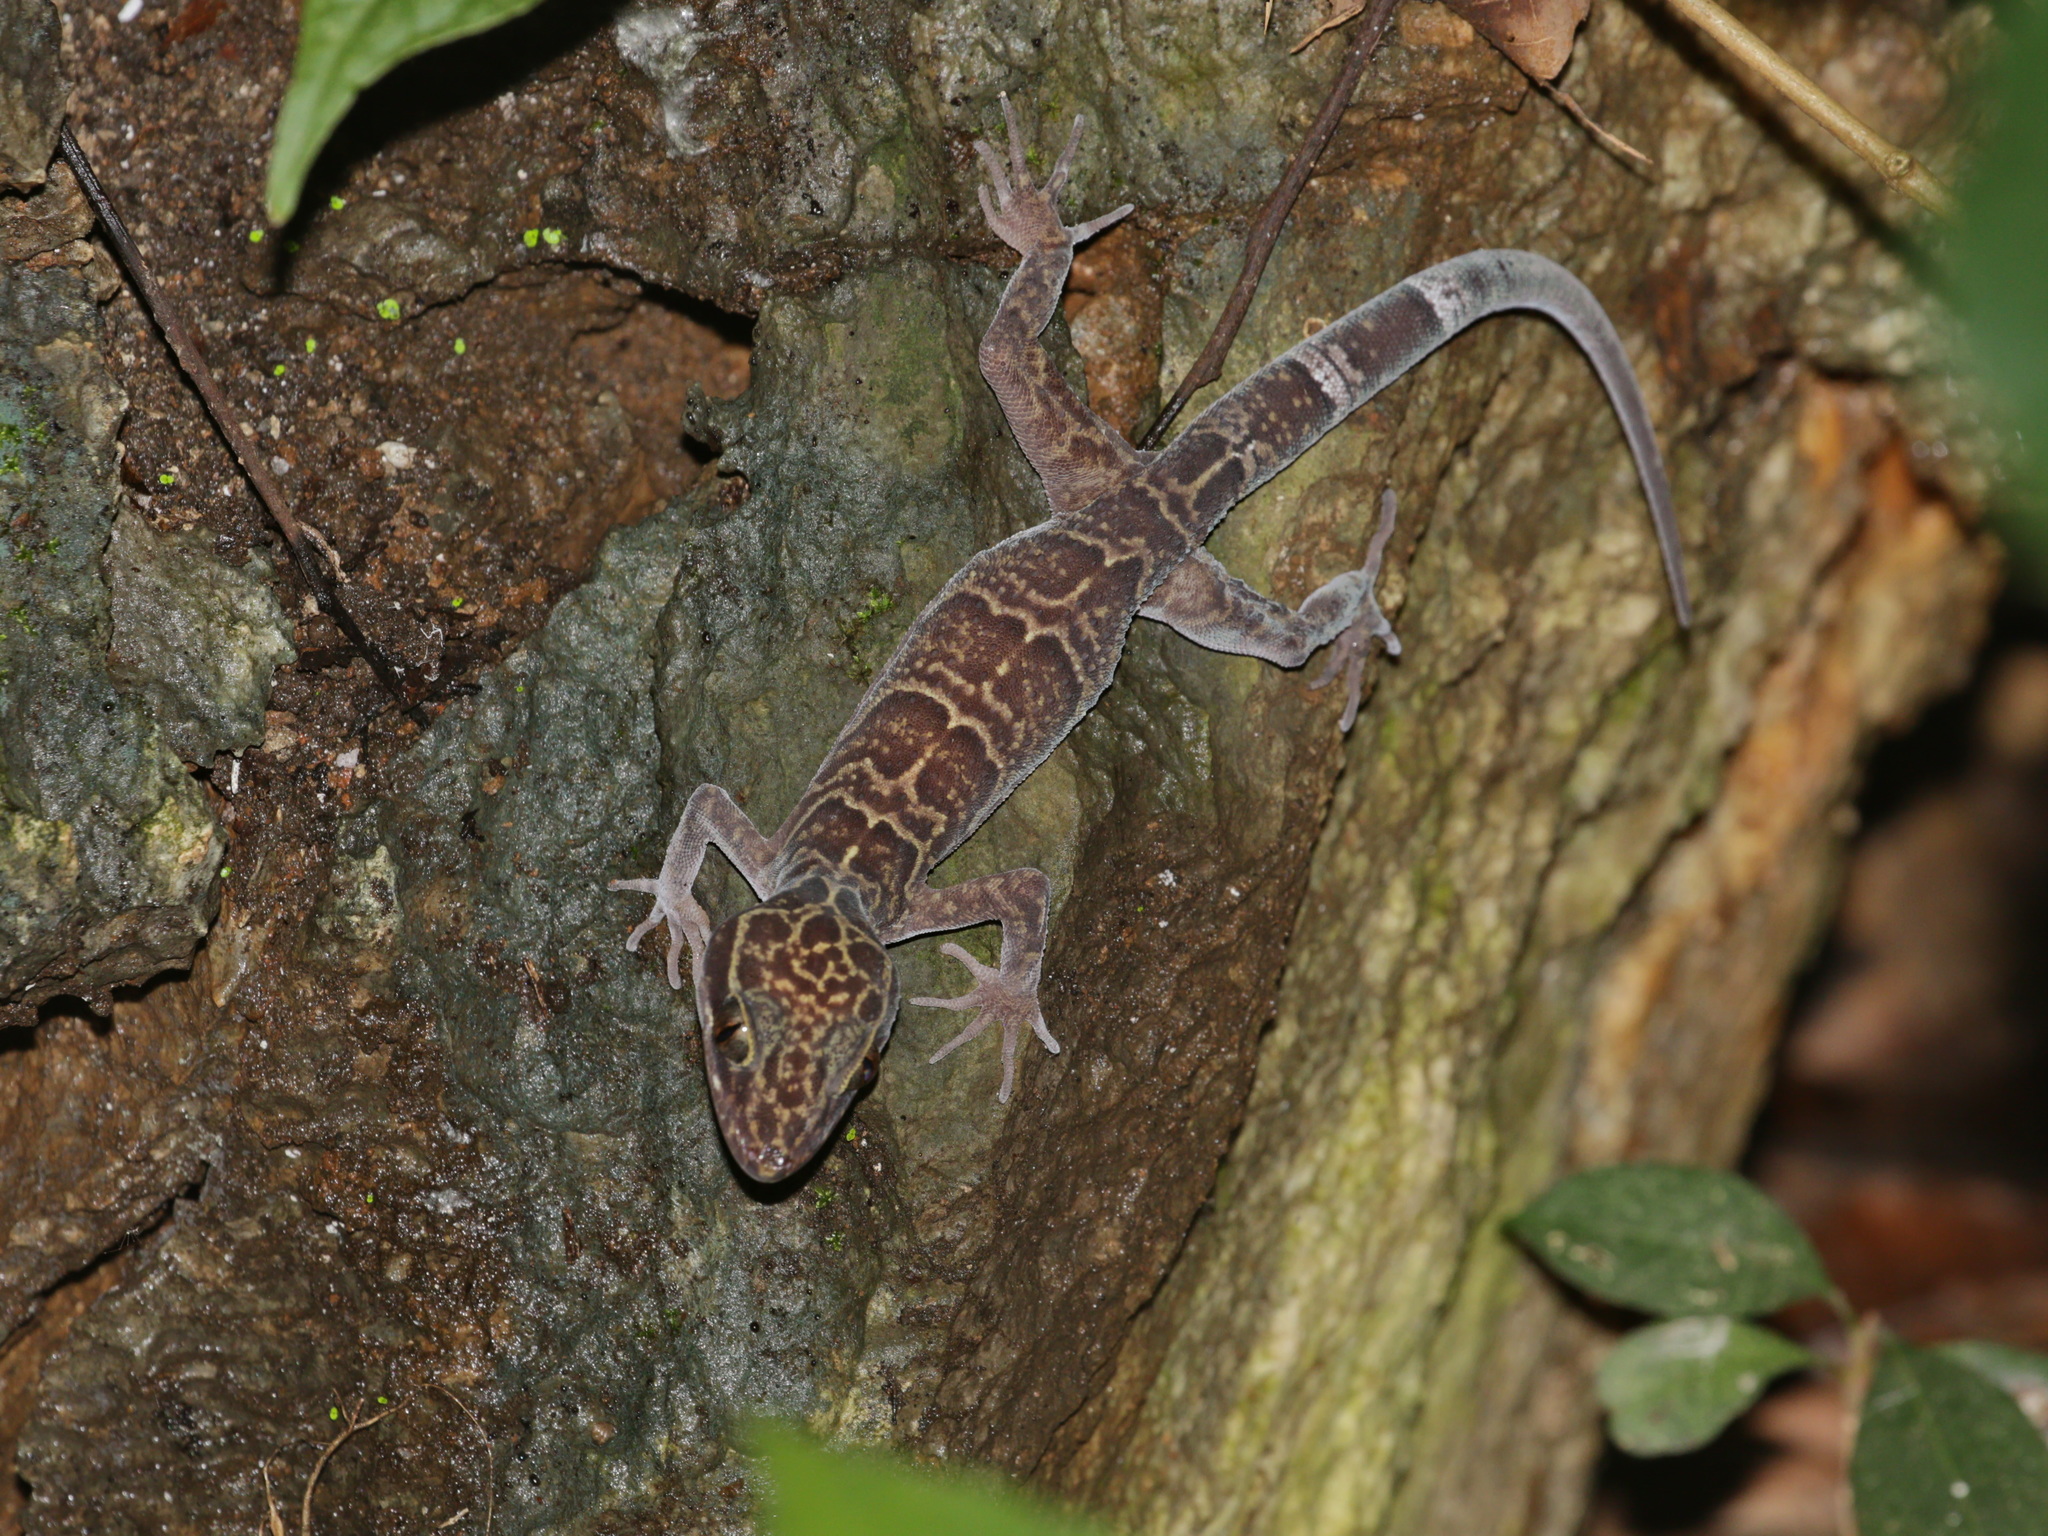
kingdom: Animalia
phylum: Chordata
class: Squamata
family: Gekkonidae
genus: Cyrtodactylus
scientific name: Cyrtodactylus khelangensis
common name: Lampang bent-toed gecko
